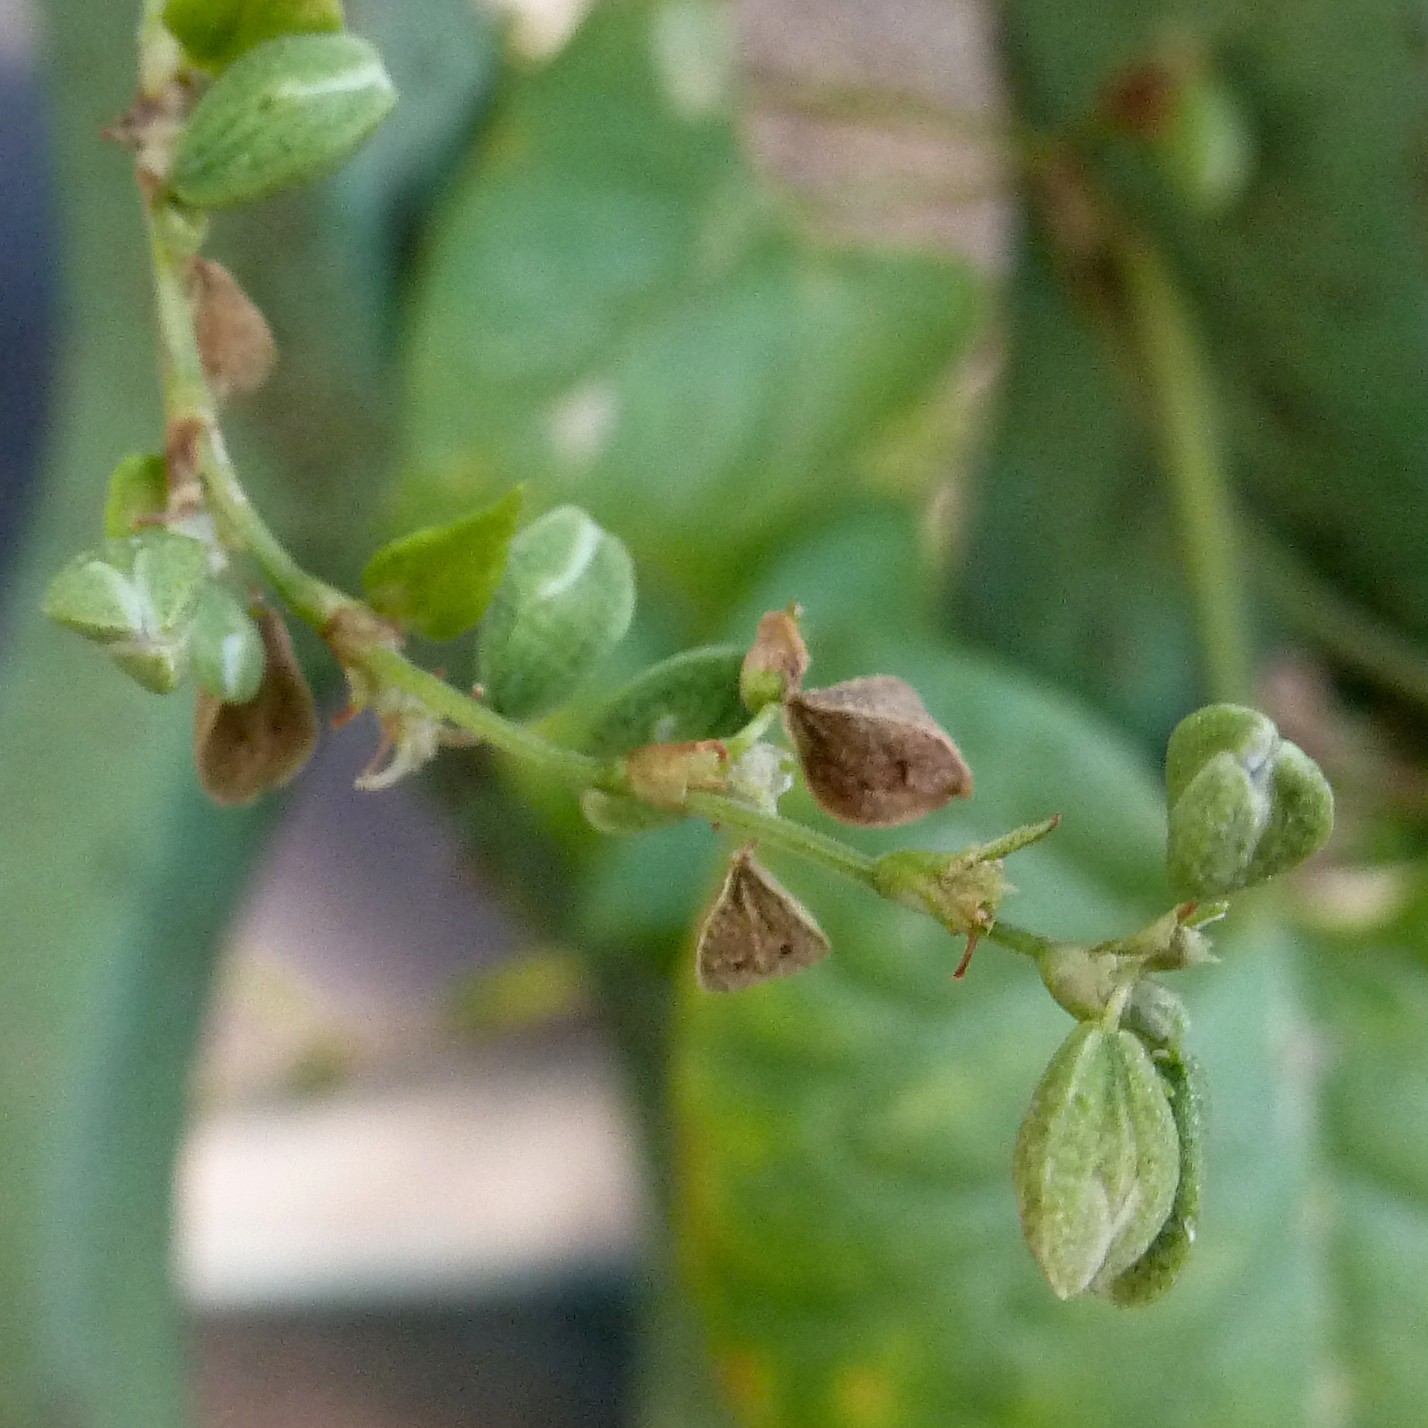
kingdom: Plantae
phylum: Tracheophyta
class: Magnoliopsida
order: Caryophyllales
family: Polygonaceae
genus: Fallopia
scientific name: Fallopia convolvulus
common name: Black bindweed
